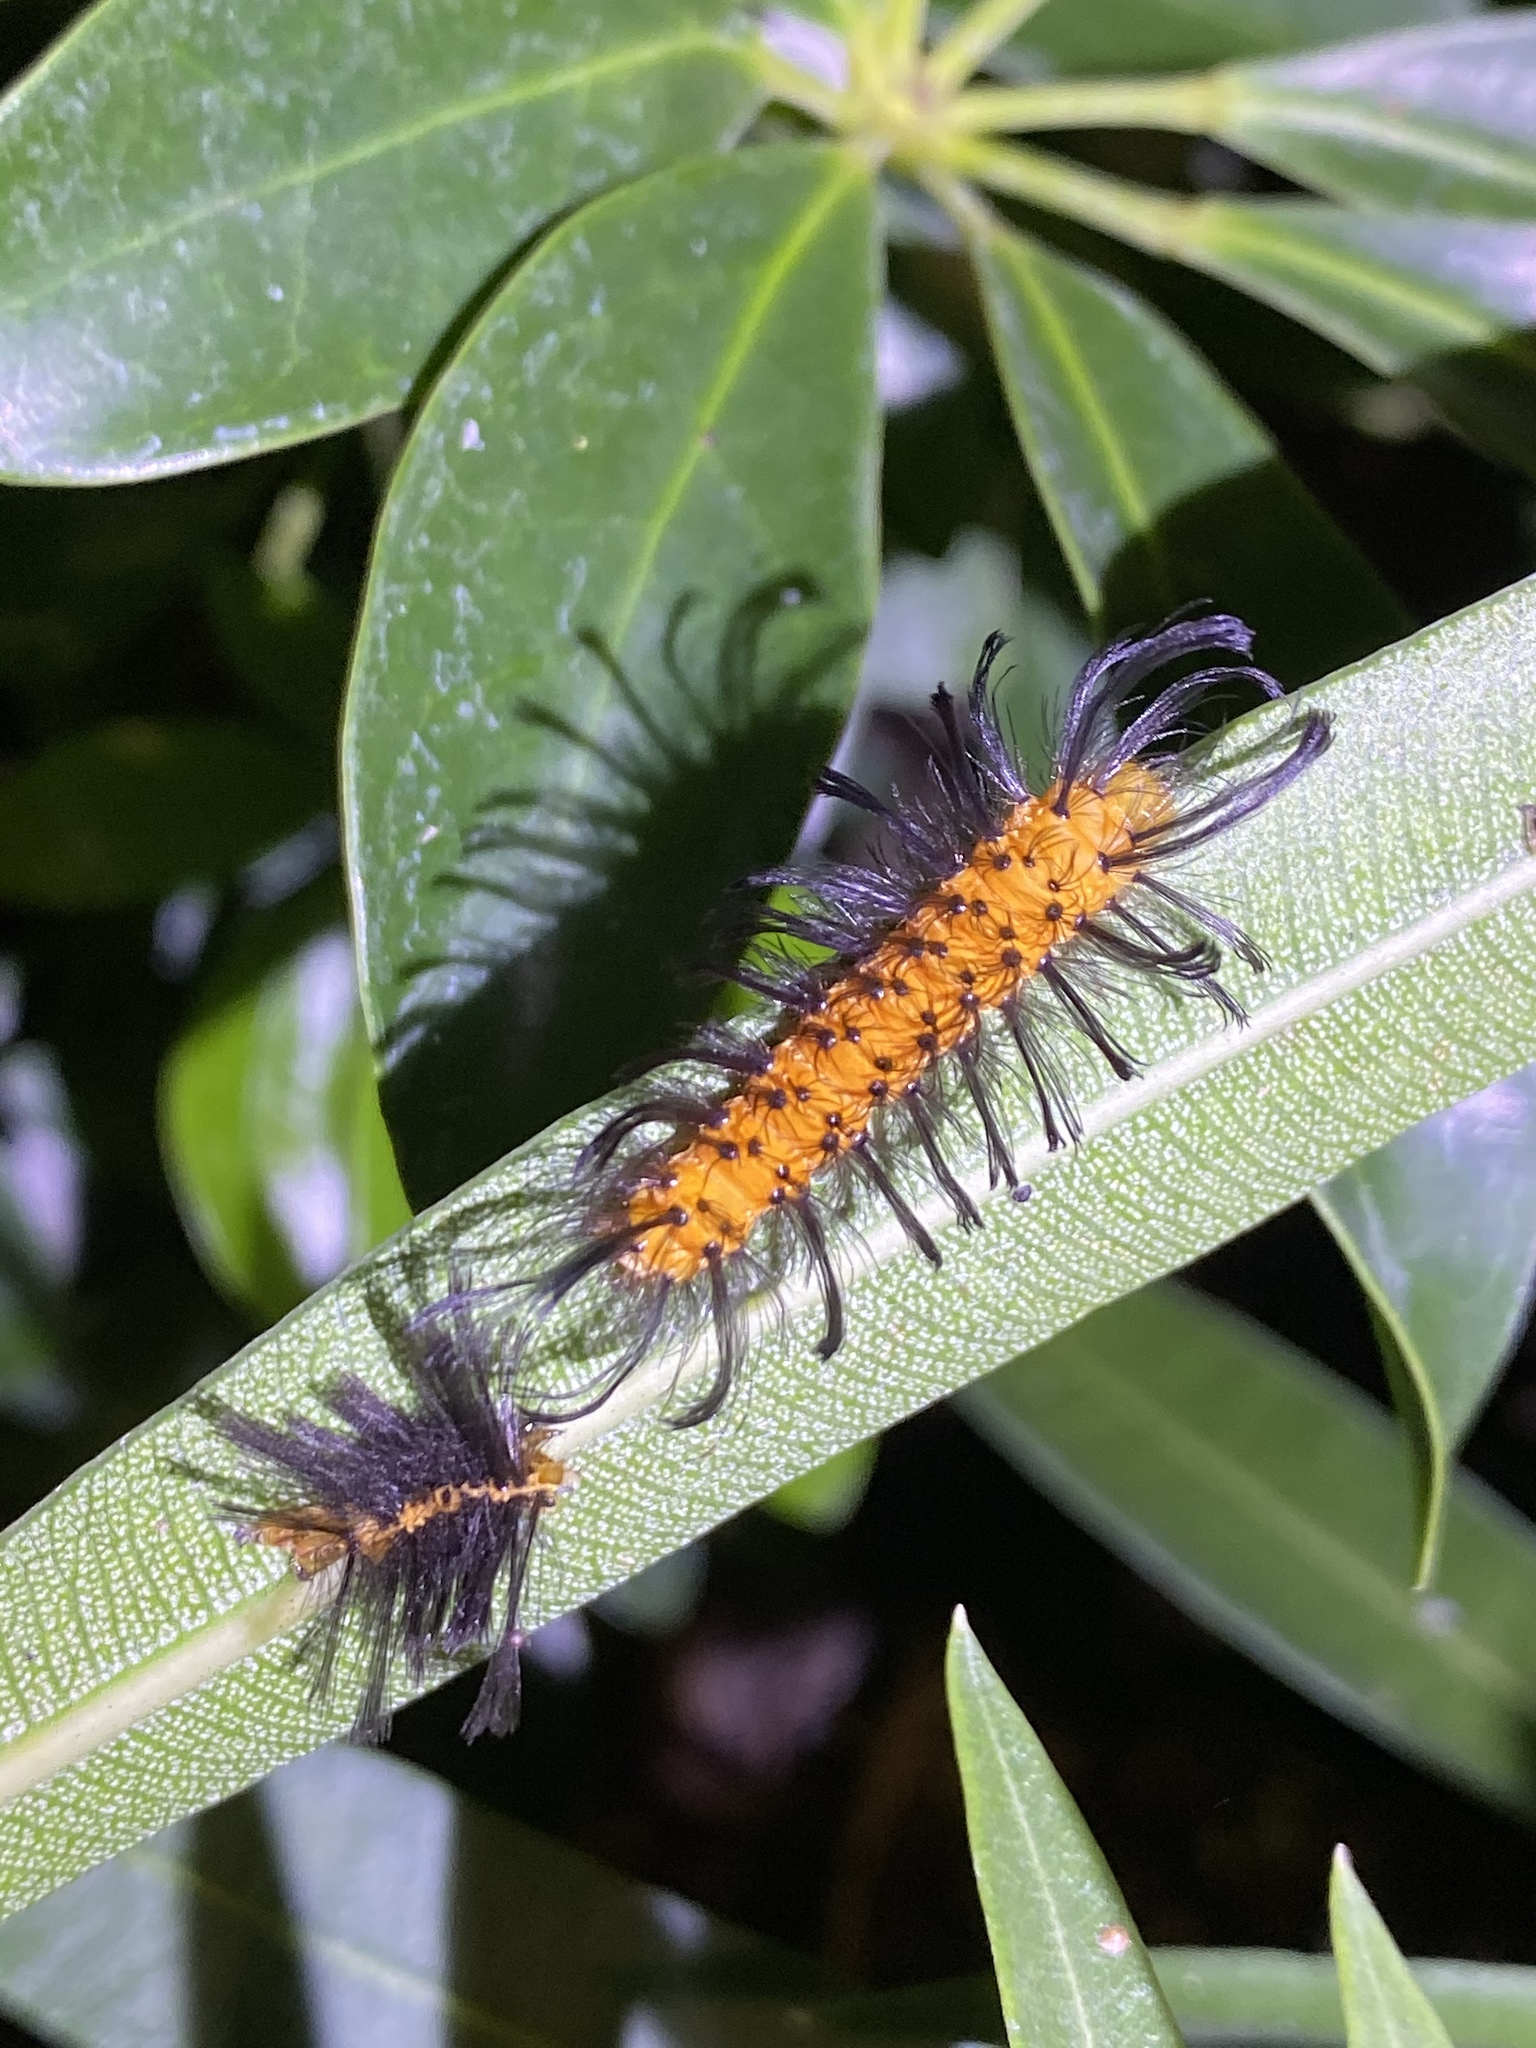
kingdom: Animalia
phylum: Arthropoda
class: Insecta
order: Lepidoptera
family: Erebidae
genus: Syntomeida
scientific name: Syntomeida epilais
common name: Polka-dot wasp moth
